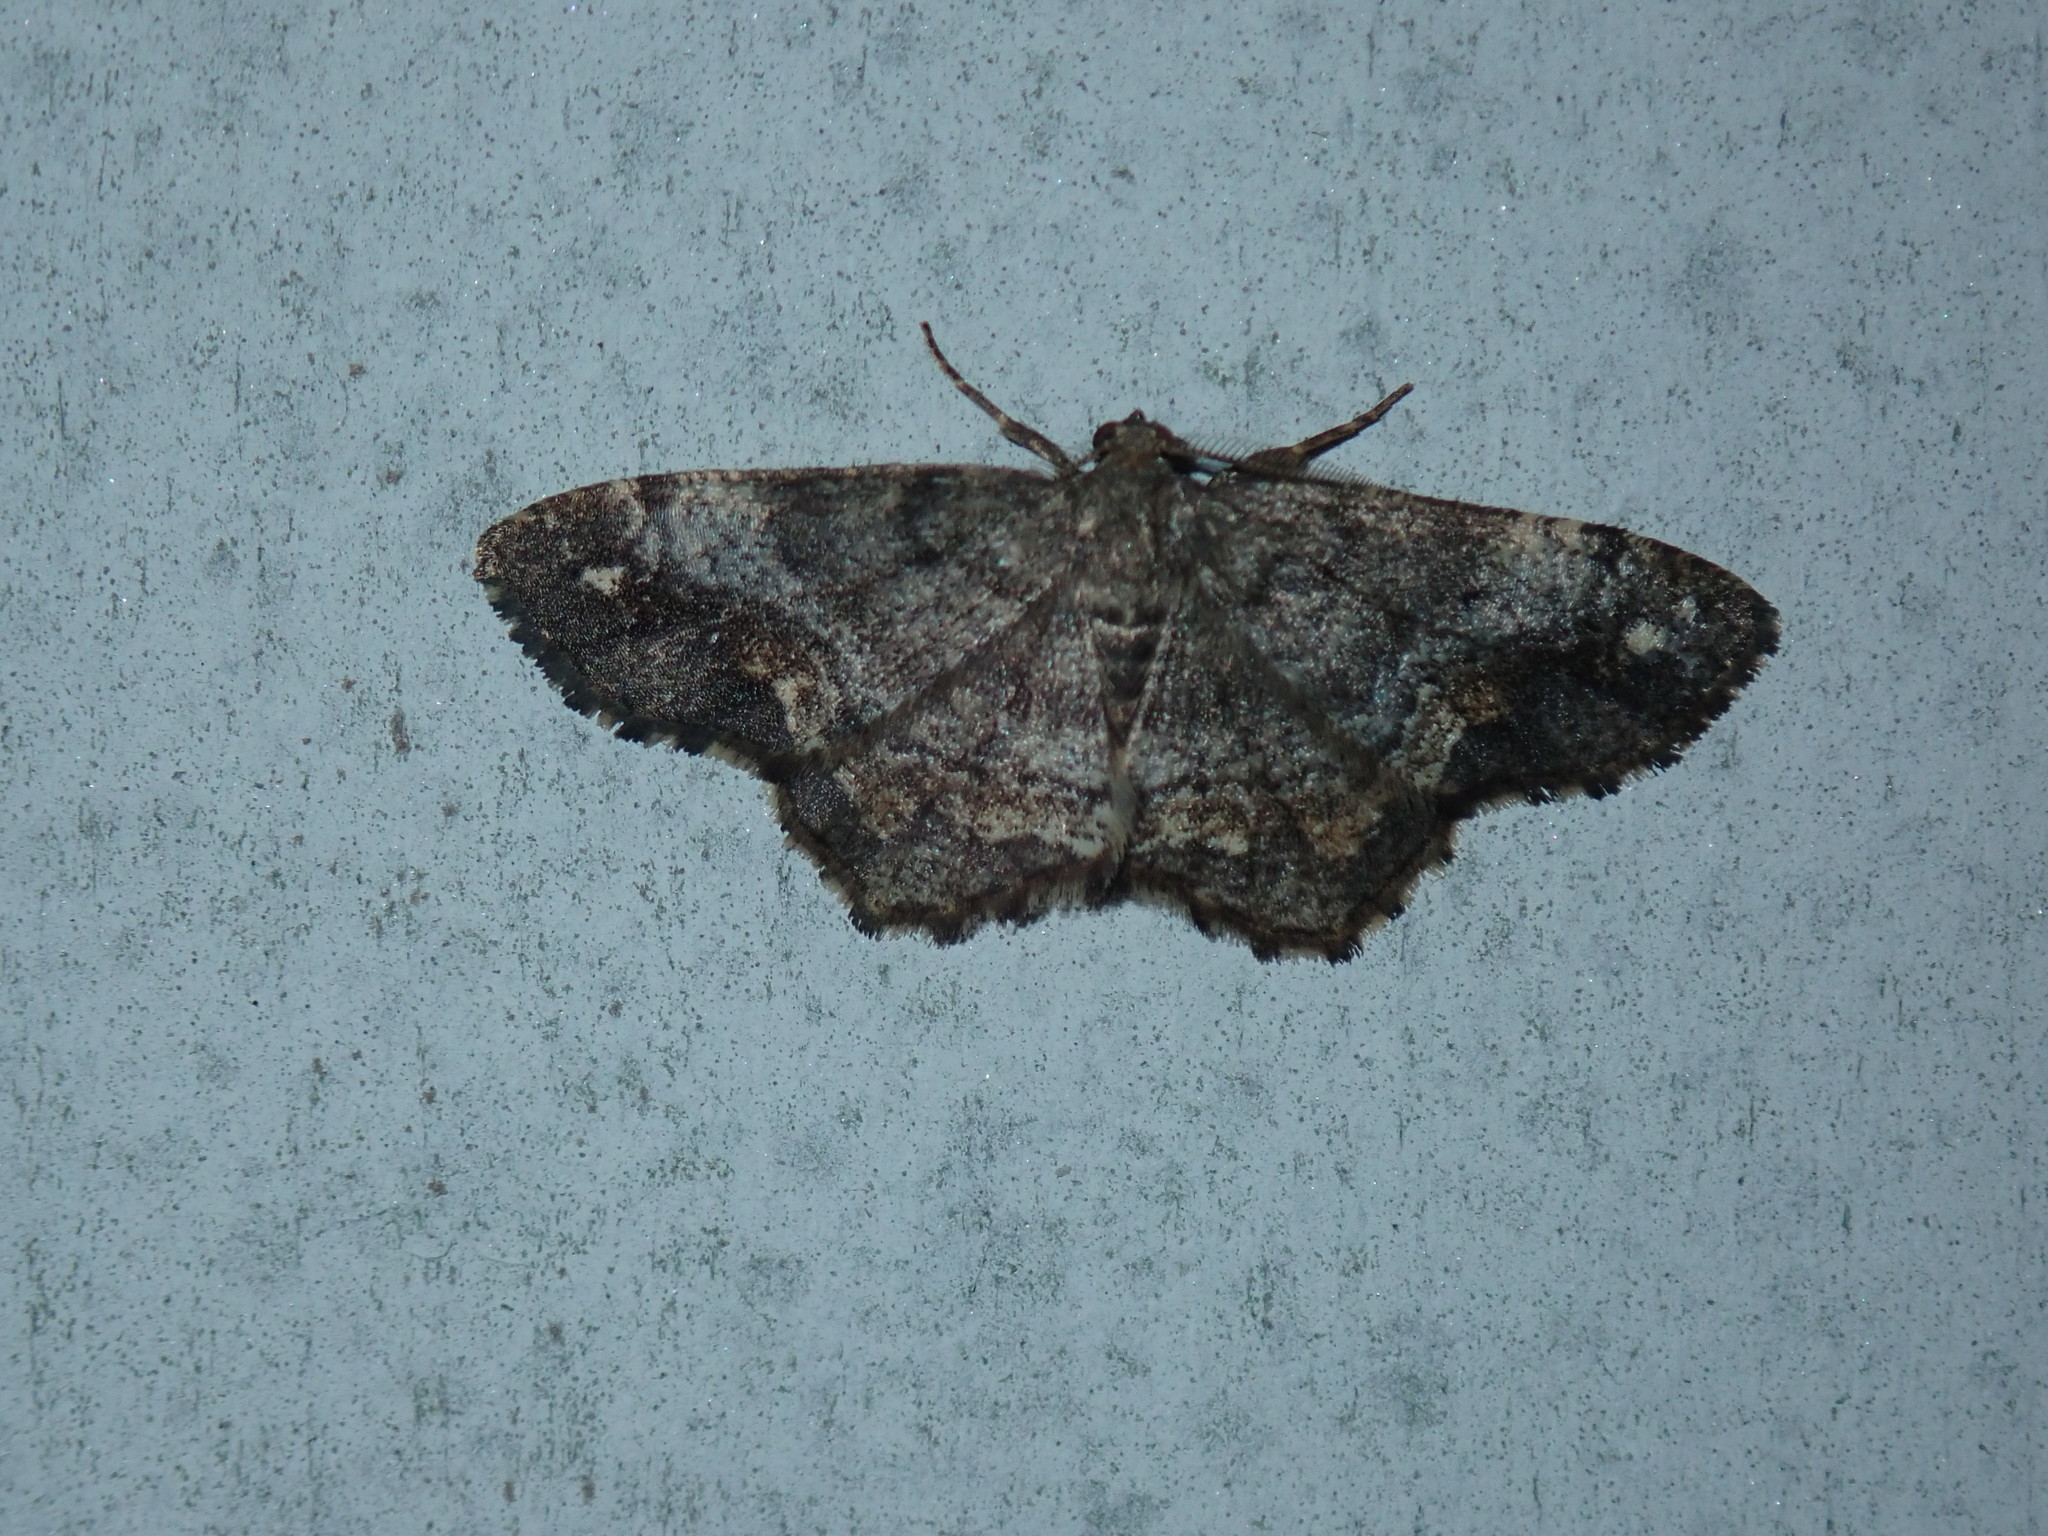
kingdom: Animalia
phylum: Arthropoda
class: Insecta
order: Lepidoptera
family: Geometridae
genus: Hypagyrtis
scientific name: Hypagyrtis unipunctata
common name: One-spotted variant
